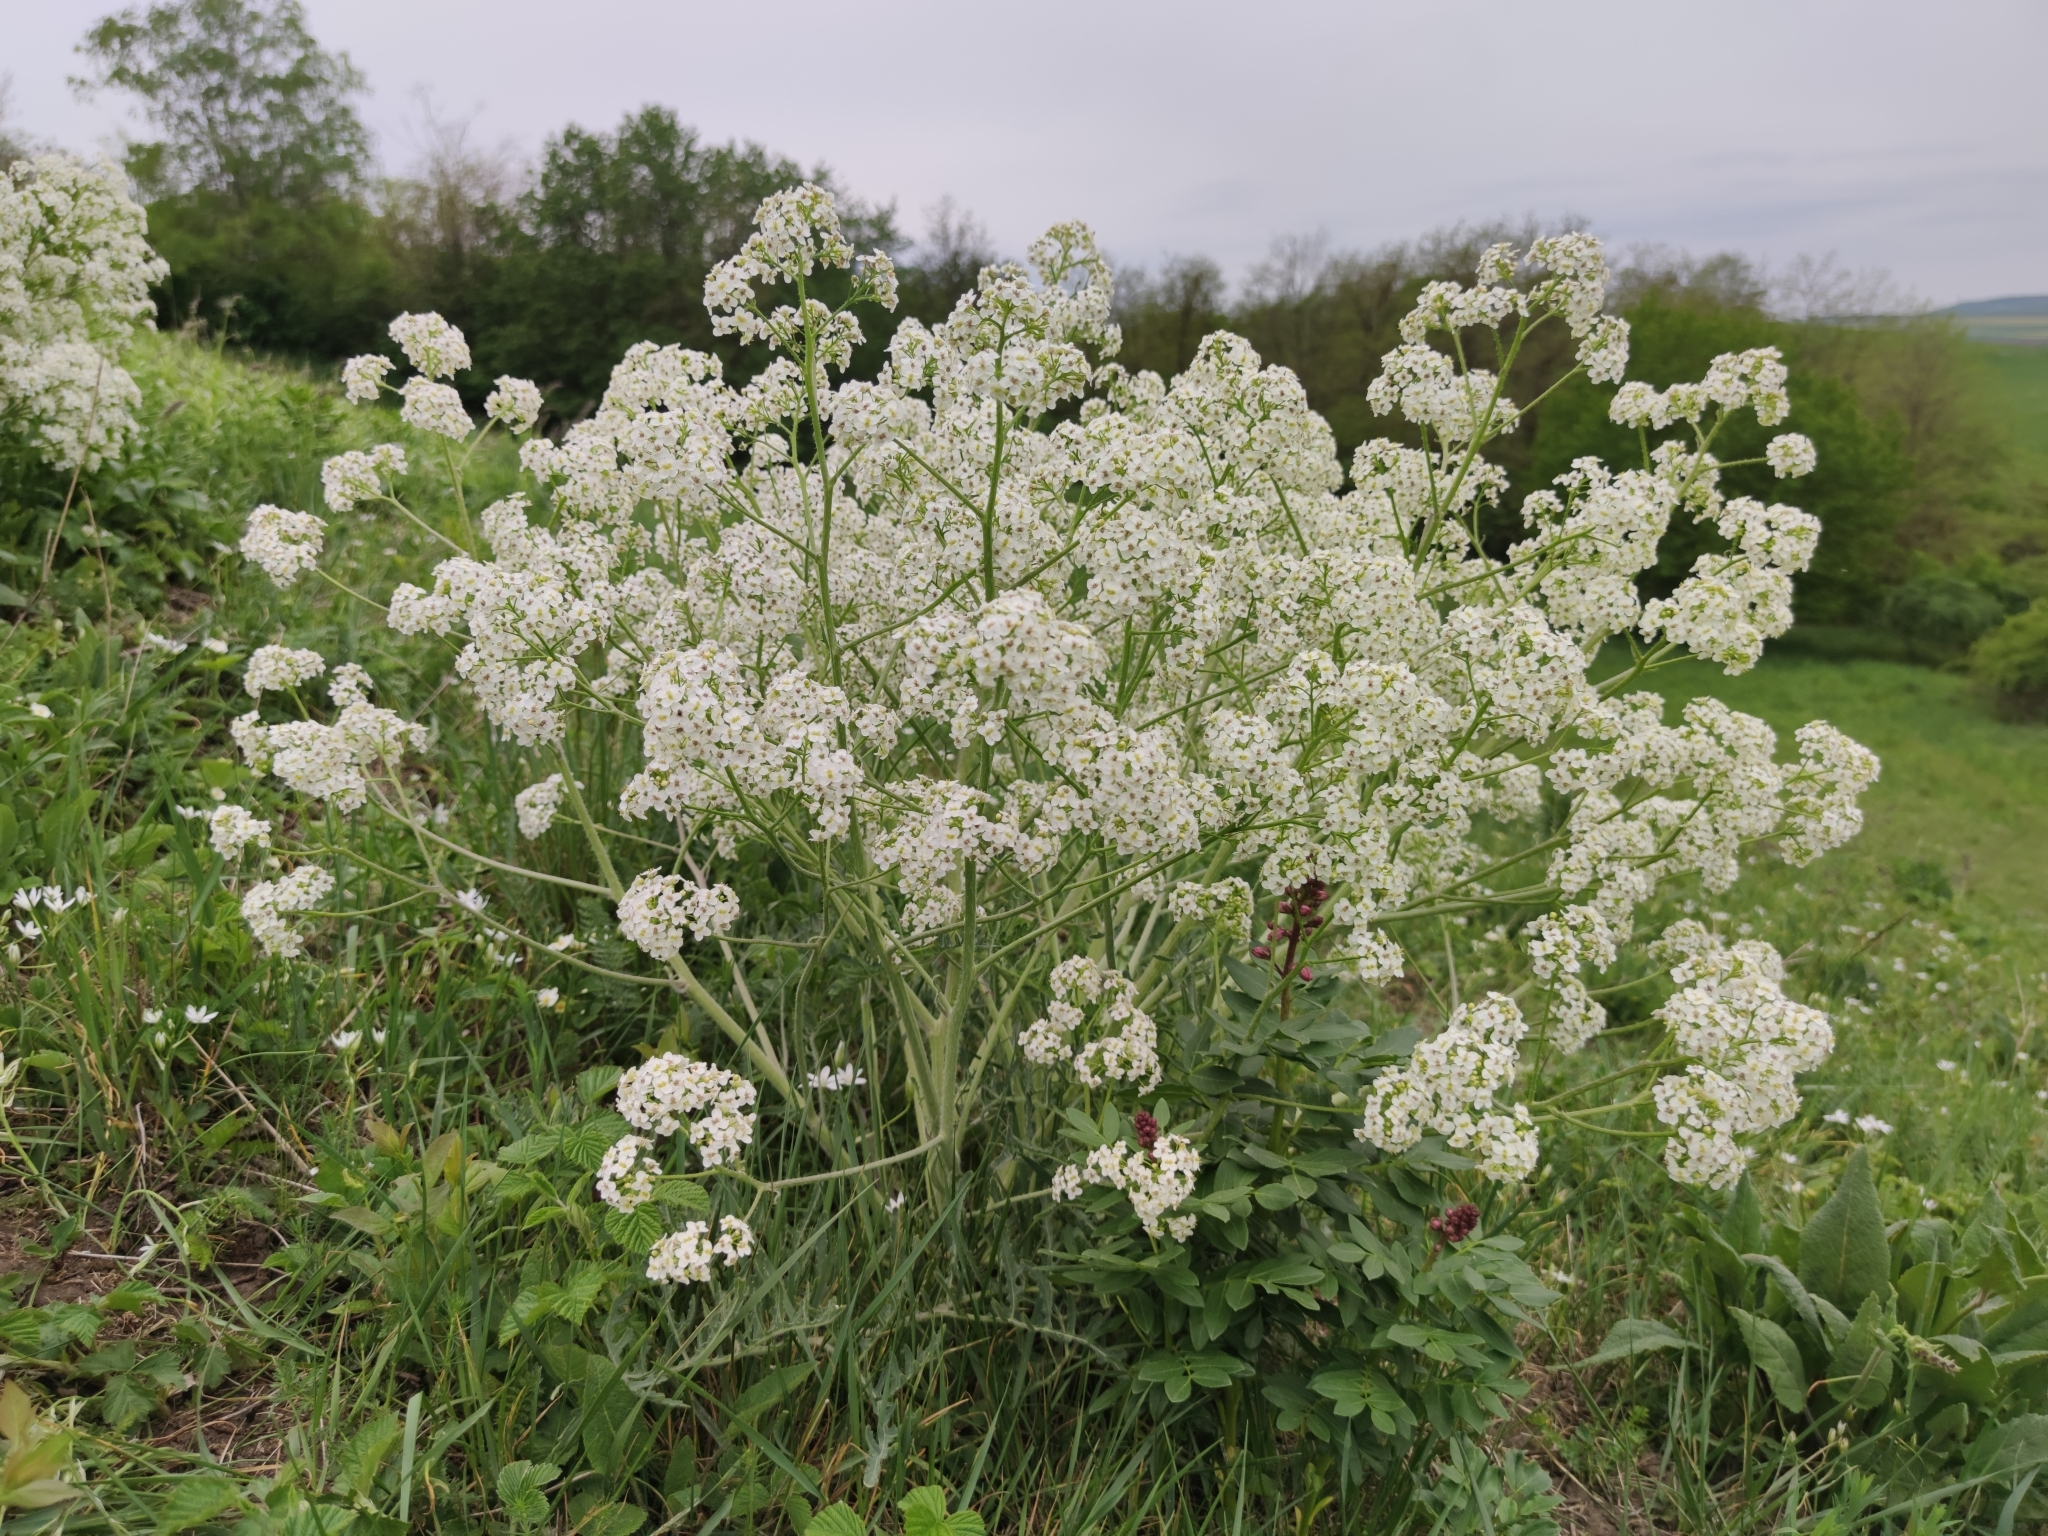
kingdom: Plantae
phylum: Tracheophyta
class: Magnoliopsida
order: Brassicales
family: Brassicaceae
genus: Crambe
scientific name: Crambe tataria
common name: Tartarian breadplant
